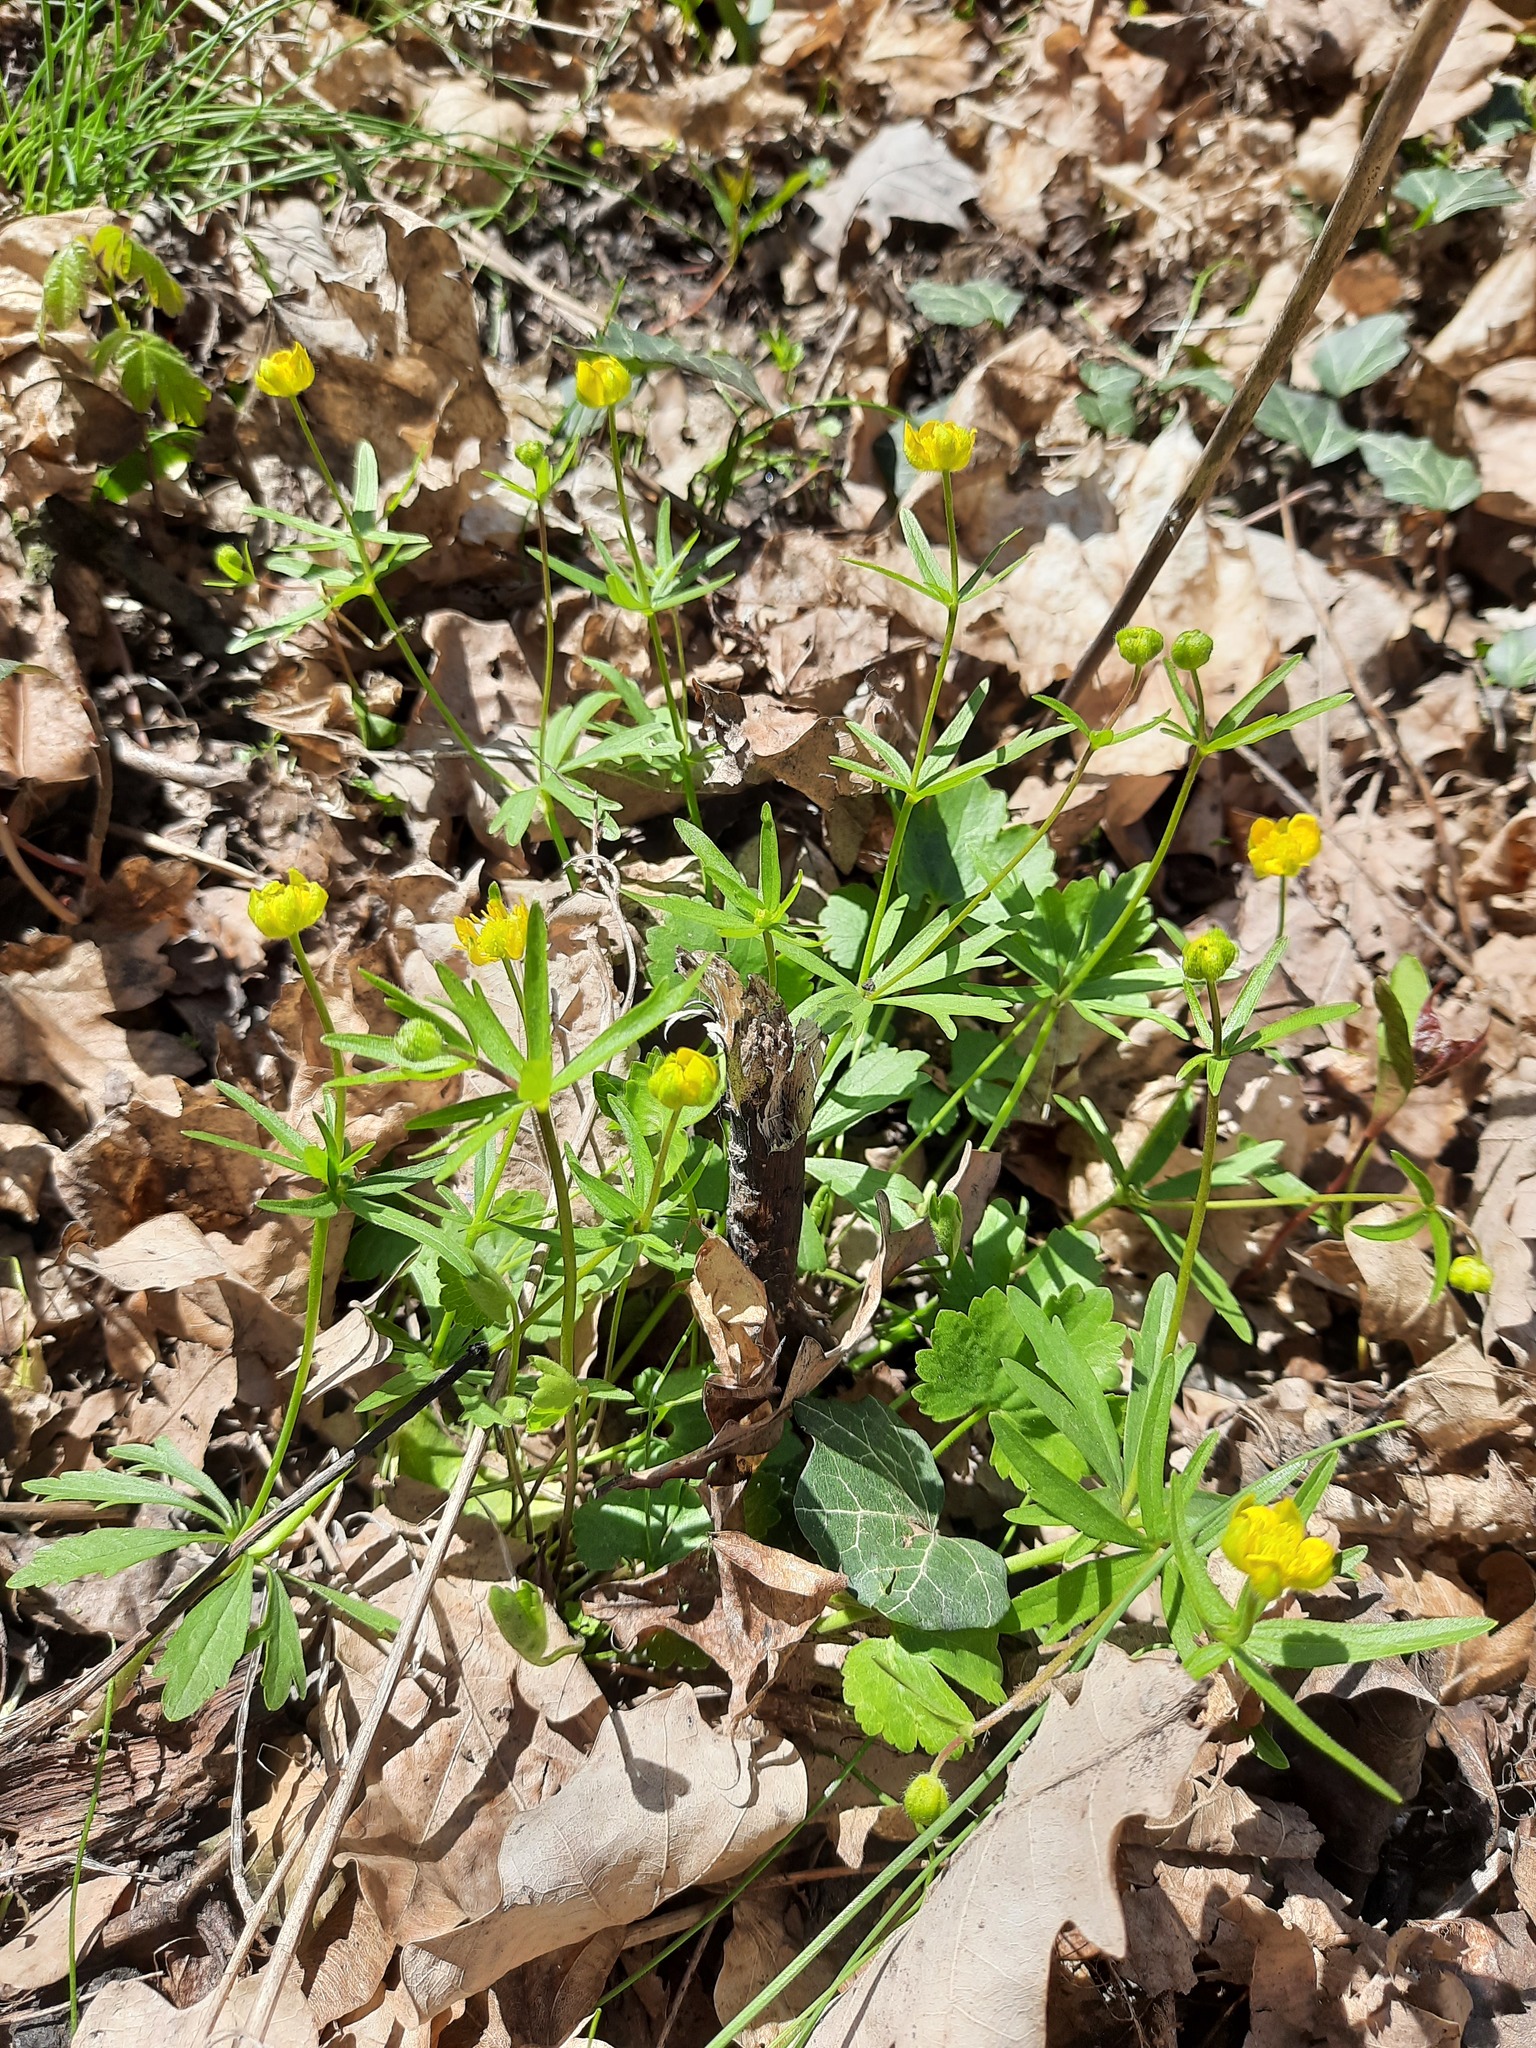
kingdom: Plantae
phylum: Tracheophyta
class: Magnoliopsida
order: Ranunculales
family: Ranunculaceae
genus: Ranunculus
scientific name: Ranunculus auricomus
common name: Goldilocks buttercup
